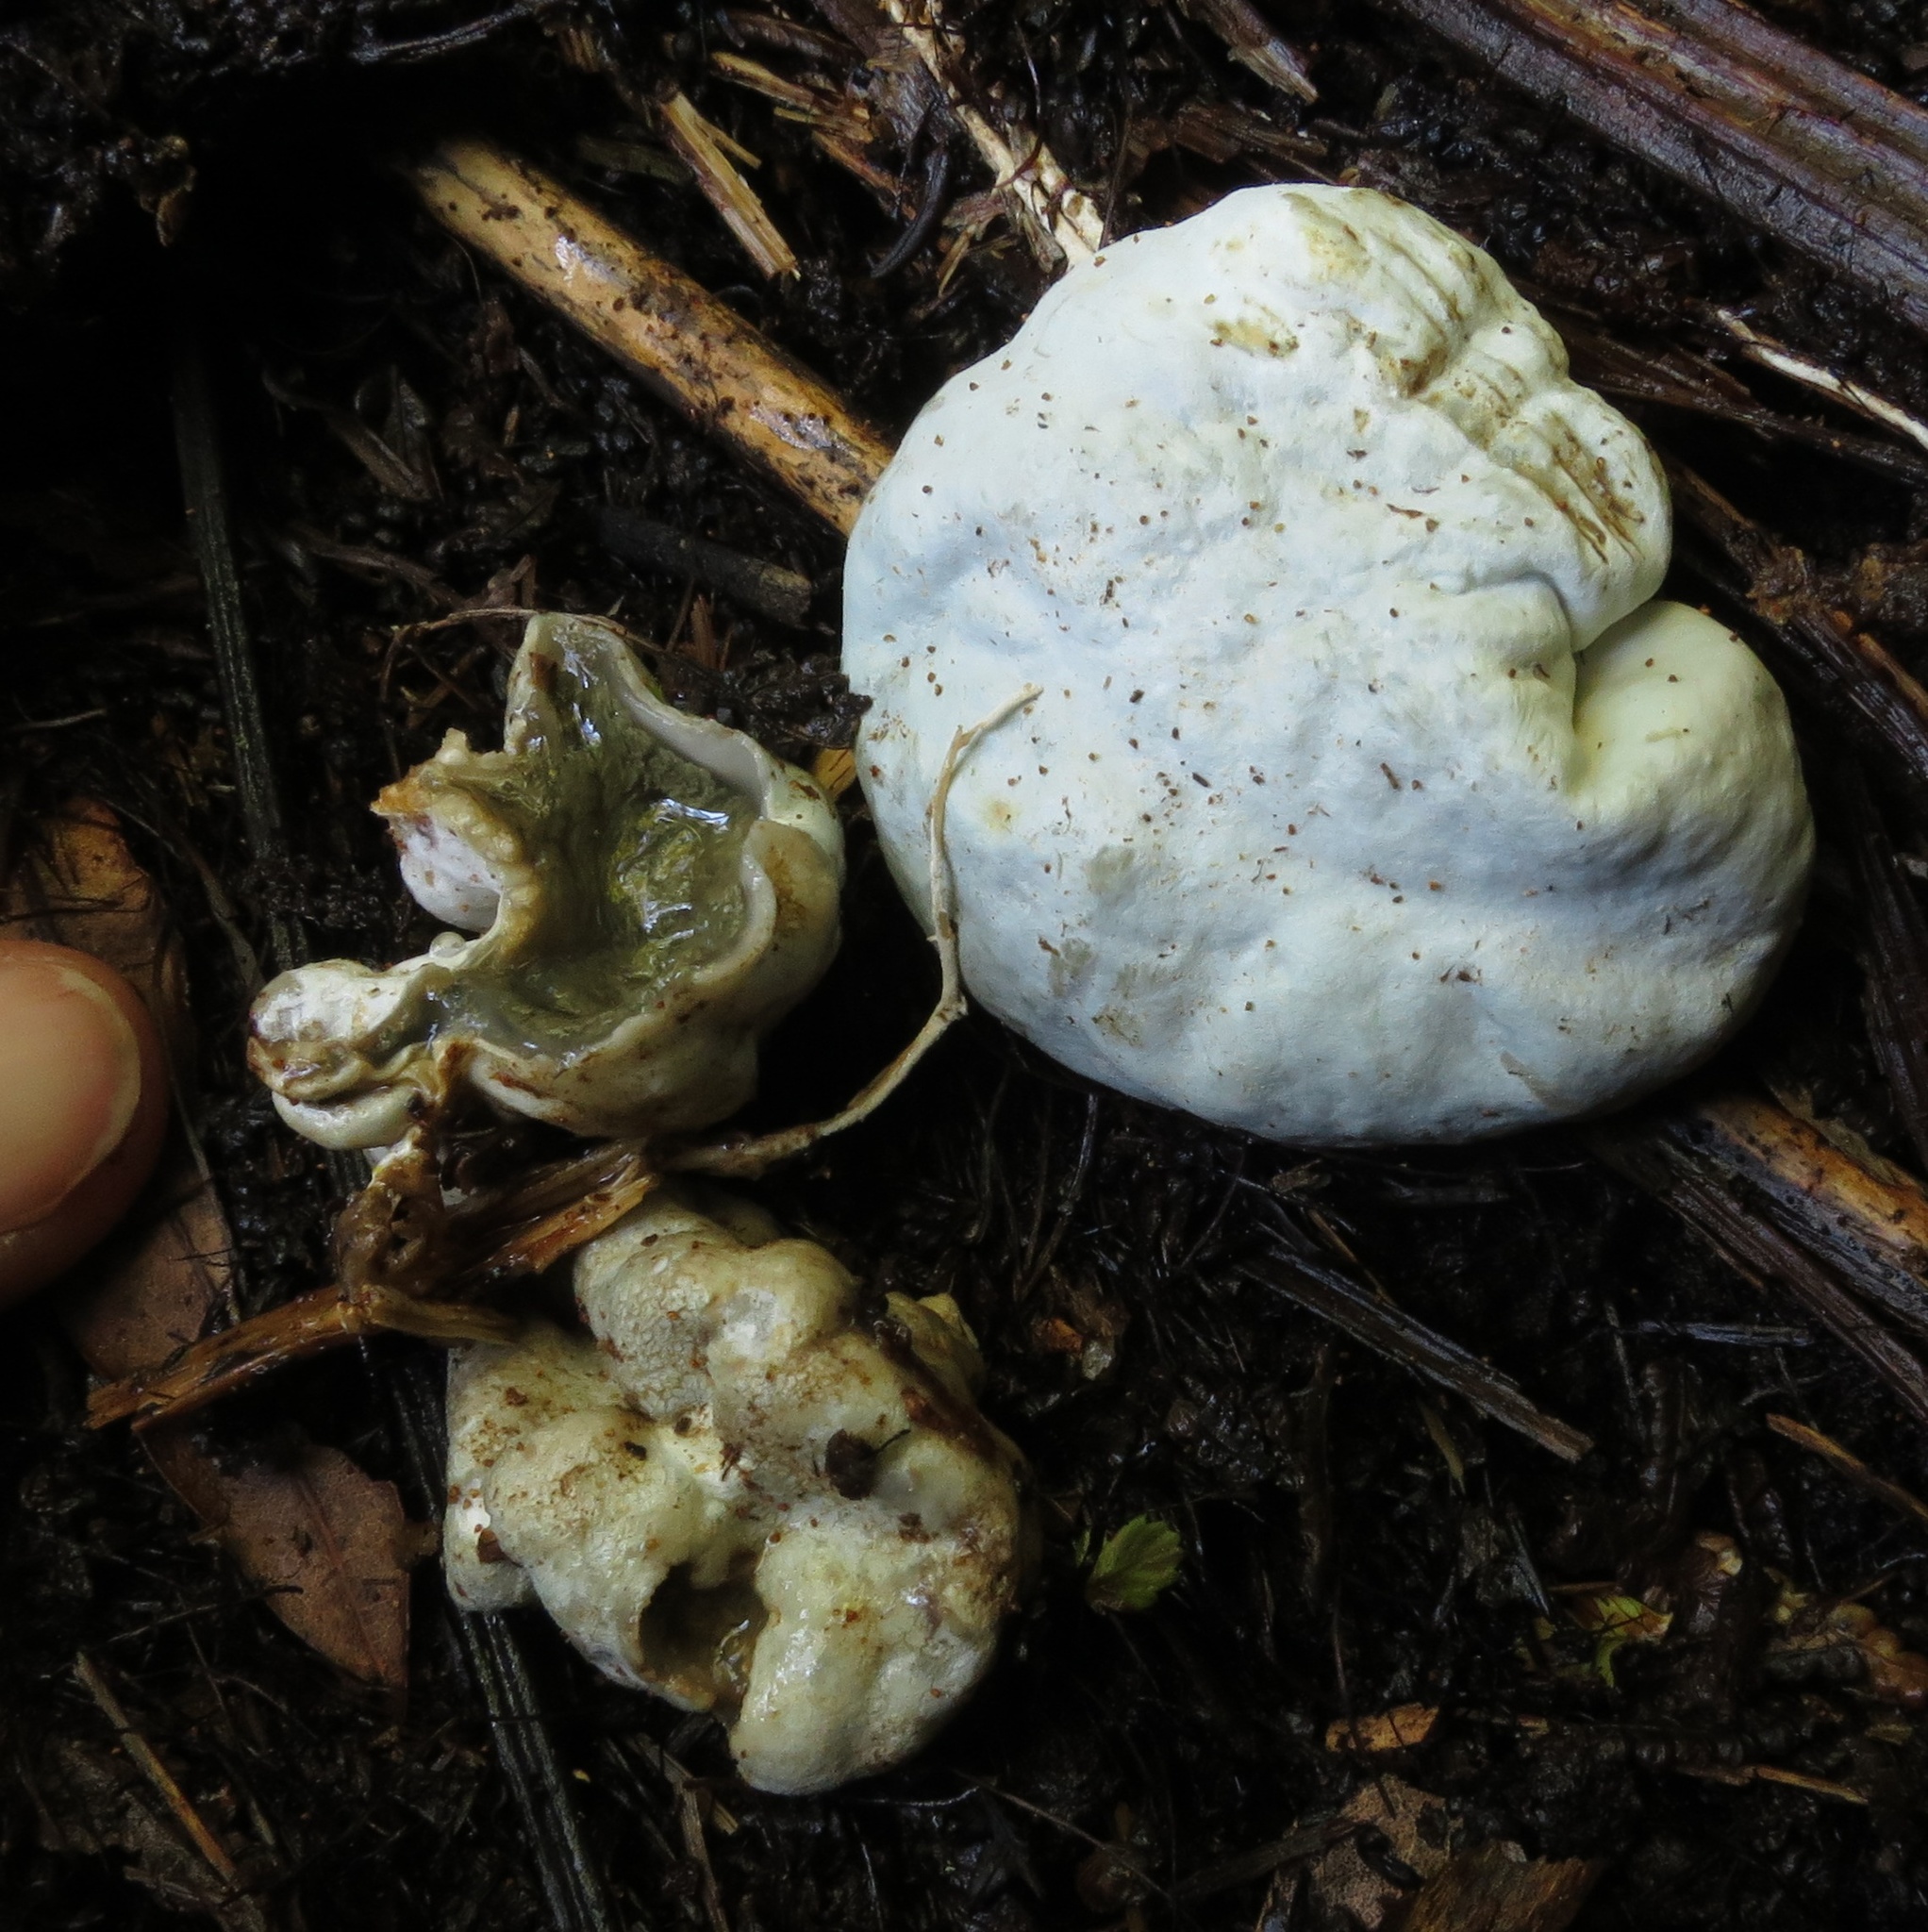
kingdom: Fungi
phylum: Basidiomycota
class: Agaricomycetes
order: Hysterangiales
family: Phallogastraceae
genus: Protubera
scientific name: Protubera parvispora
